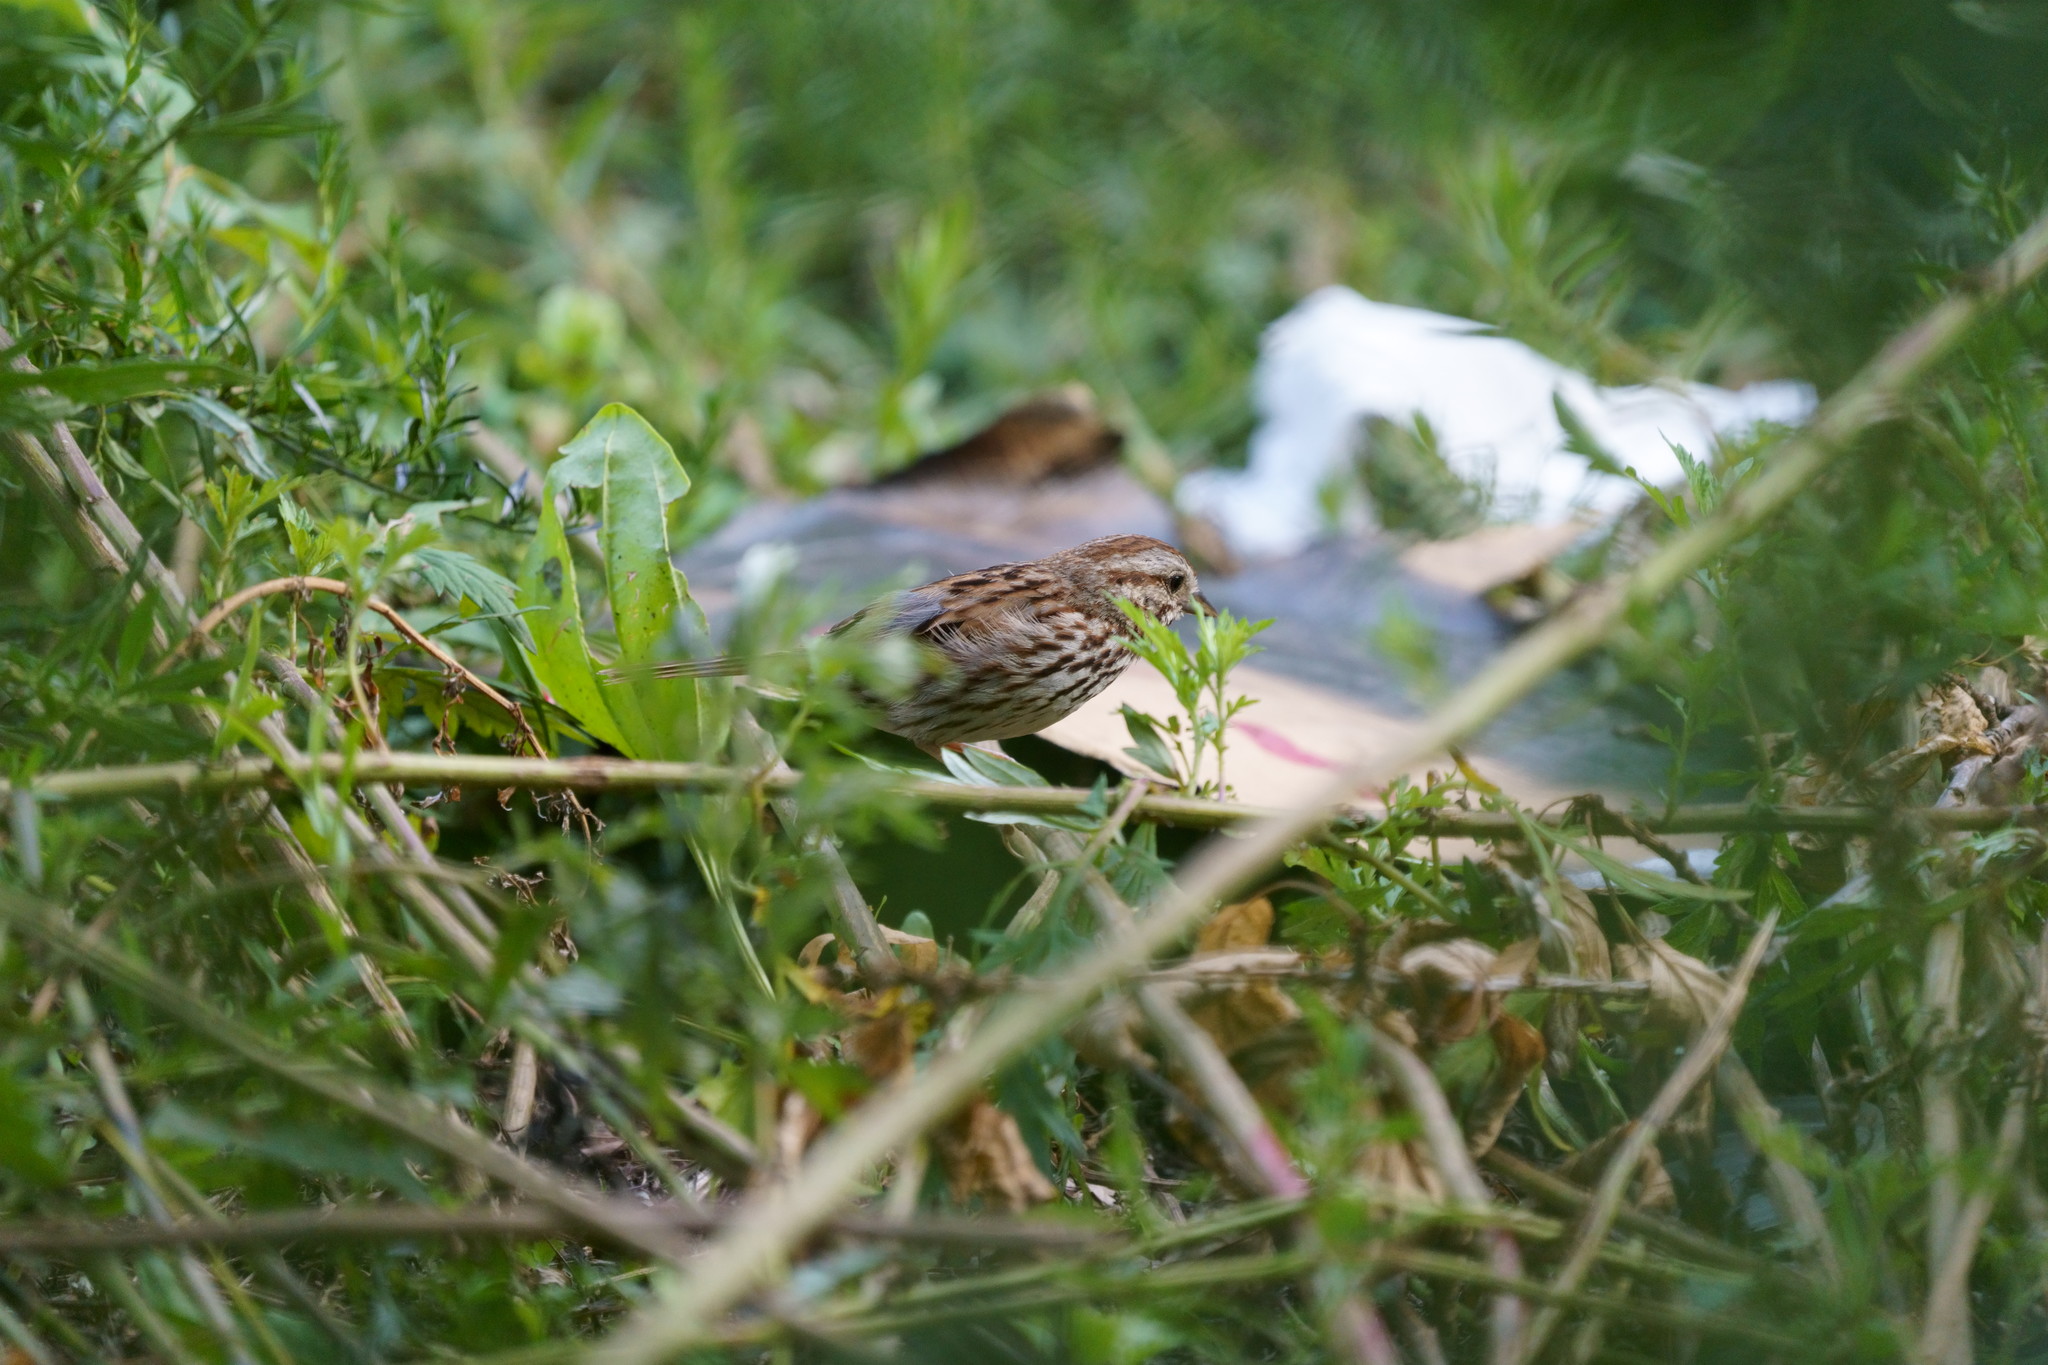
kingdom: Animalia
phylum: Chordata
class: Aves
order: Passeriformes
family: Passerellidae
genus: Melospiza
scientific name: Melospiza melodia
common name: Song sparrow
